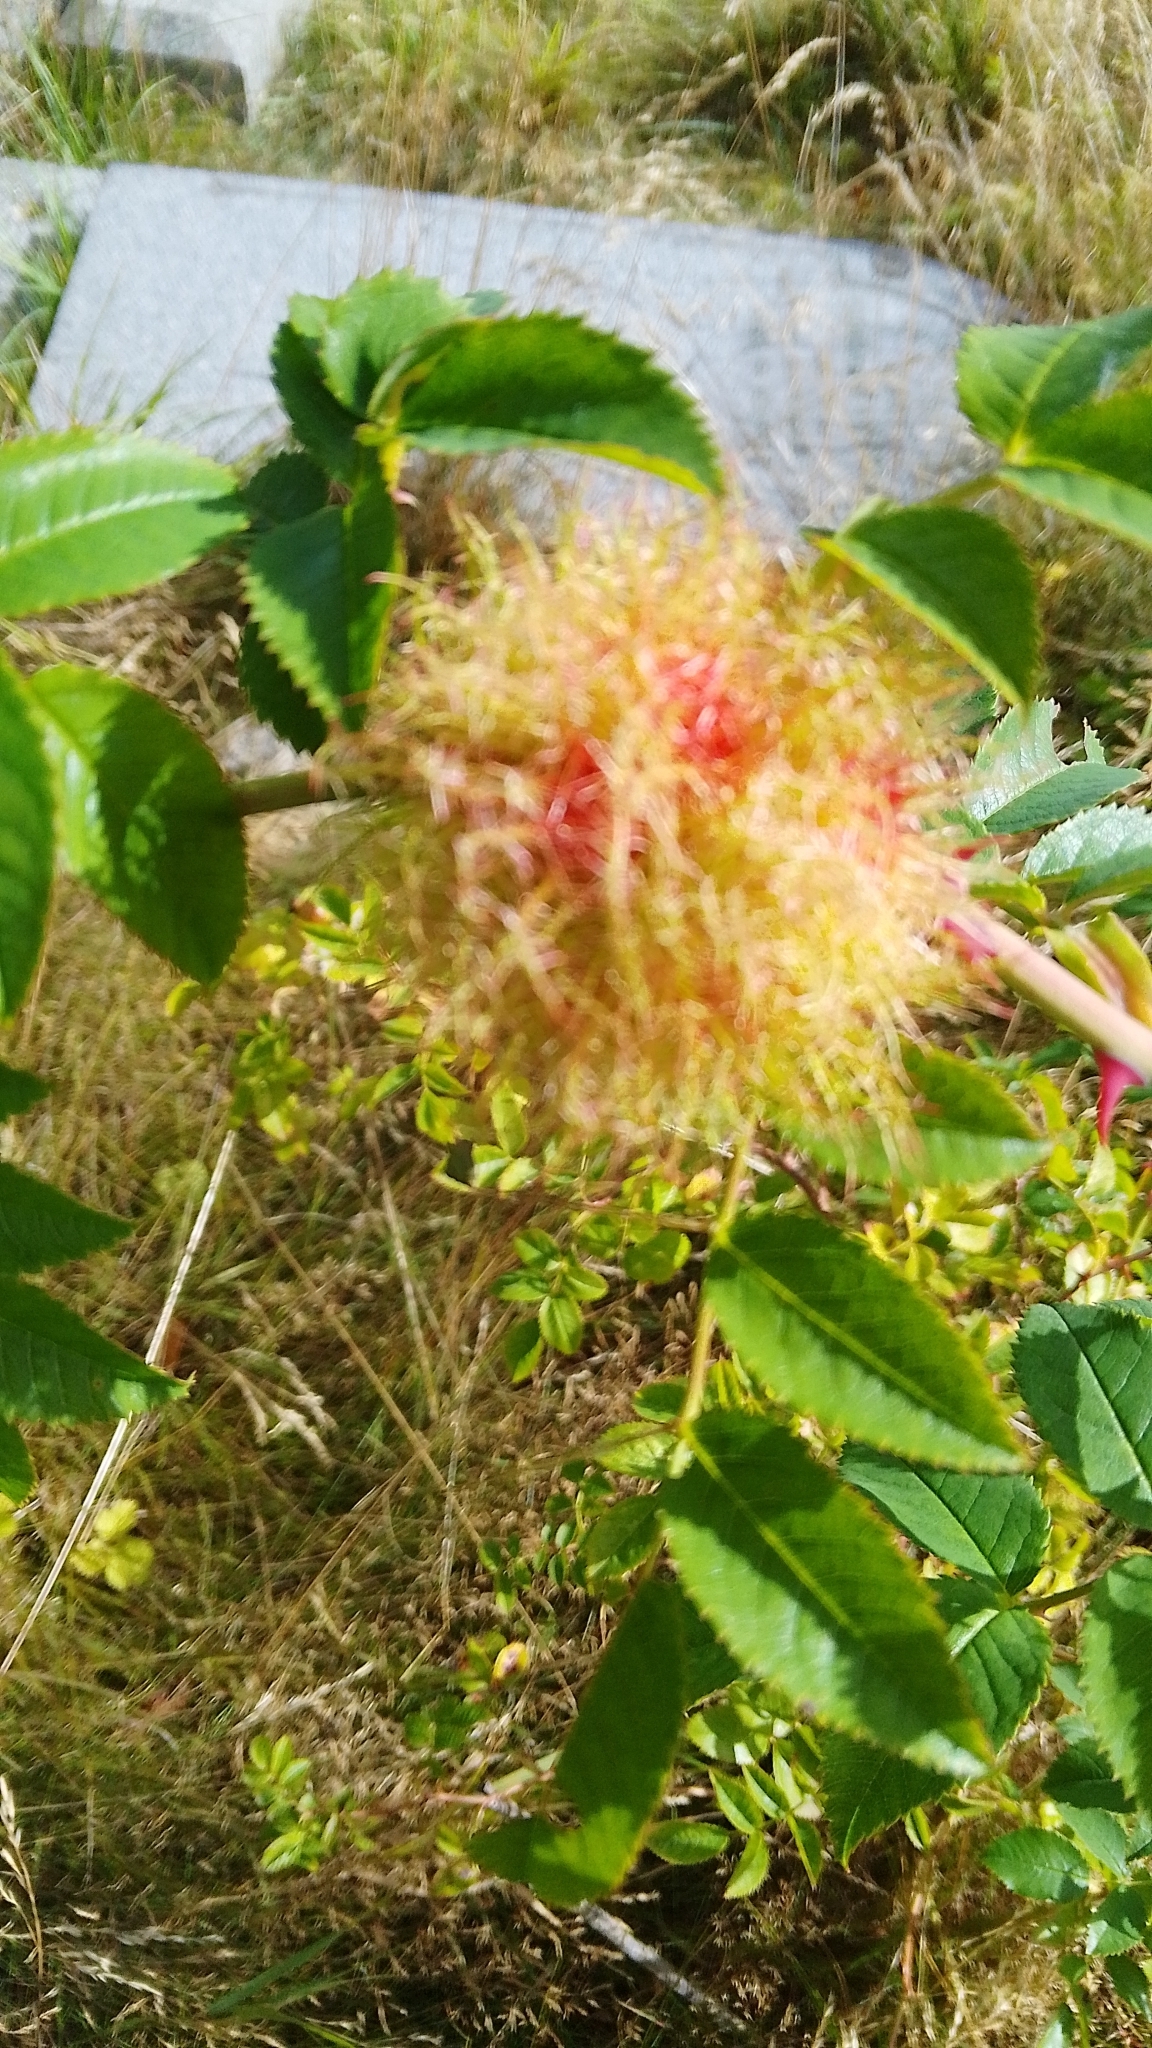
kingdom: Animalia
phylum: Arthropoda
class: Insecta
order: Hymenoptera
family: Cynipidae
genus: Diplolepis
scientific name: Diplolepis rosae
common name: Bedeguar gall
